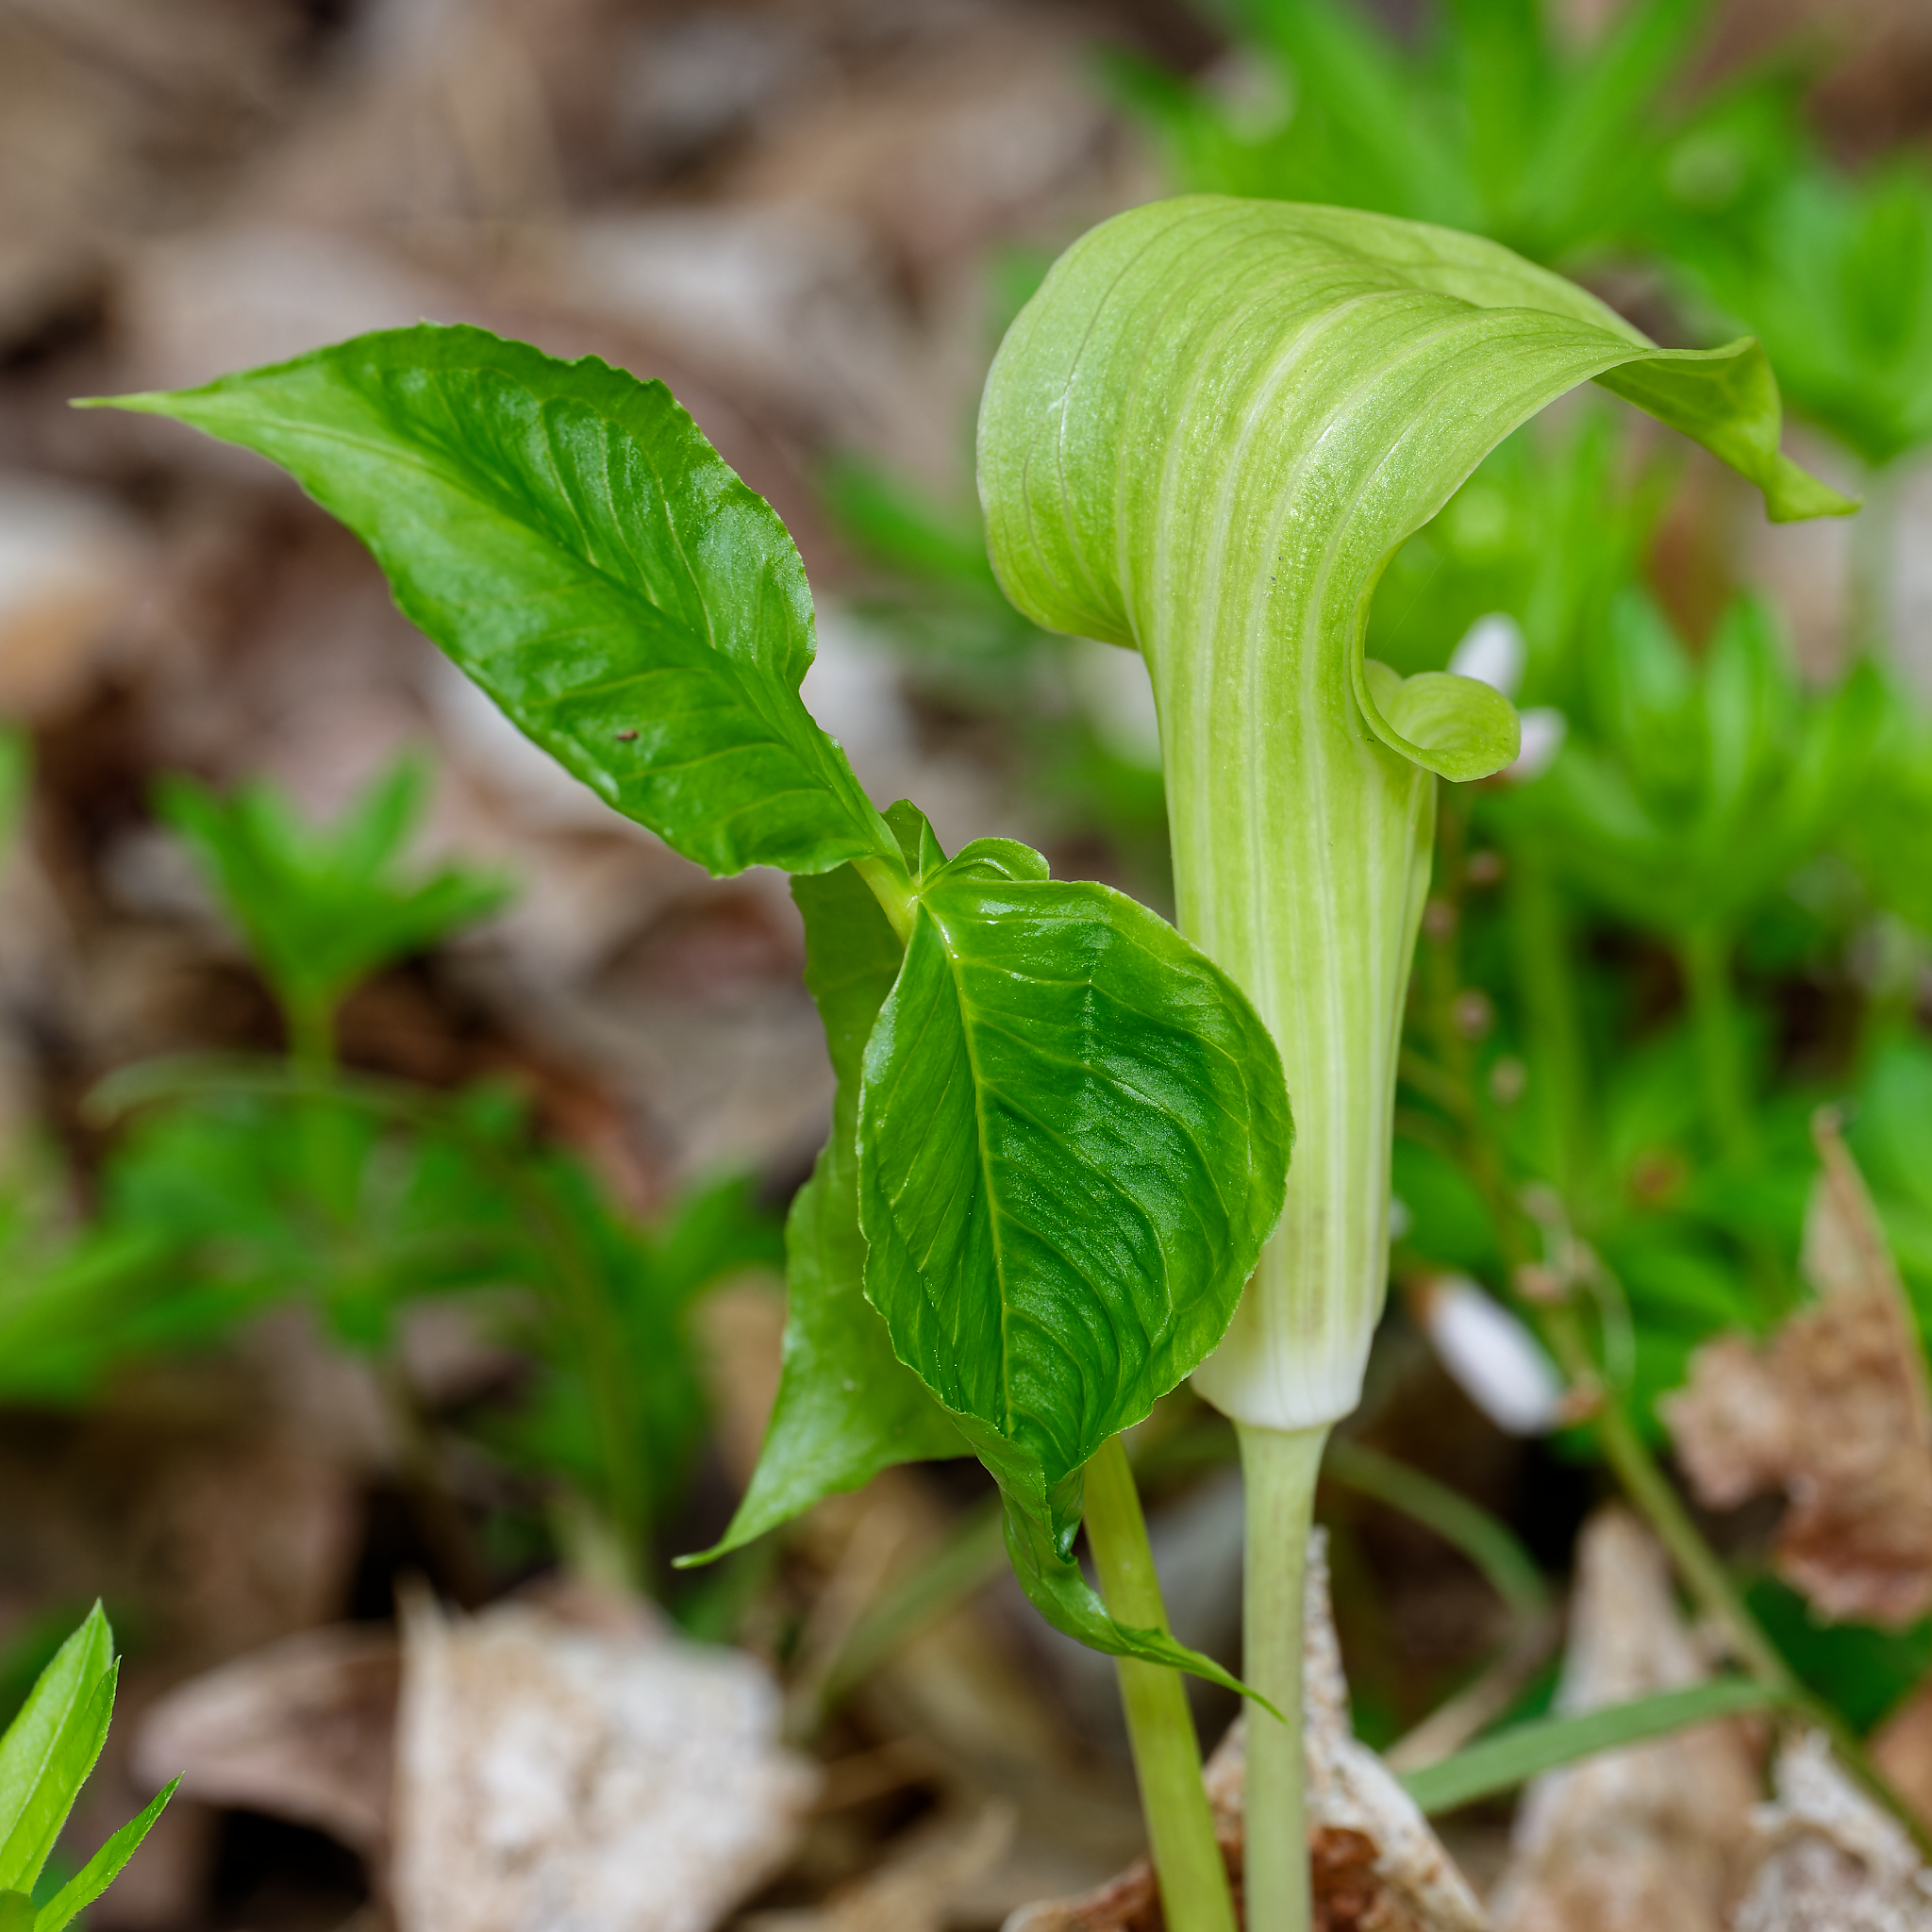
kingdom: Plantae
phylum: Tracheophyta
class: Liliopsida
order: Alismatales
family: Araceae
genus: Arisaema
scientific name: Arisaema triphyllum
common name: Jack-in-the-pulpit
